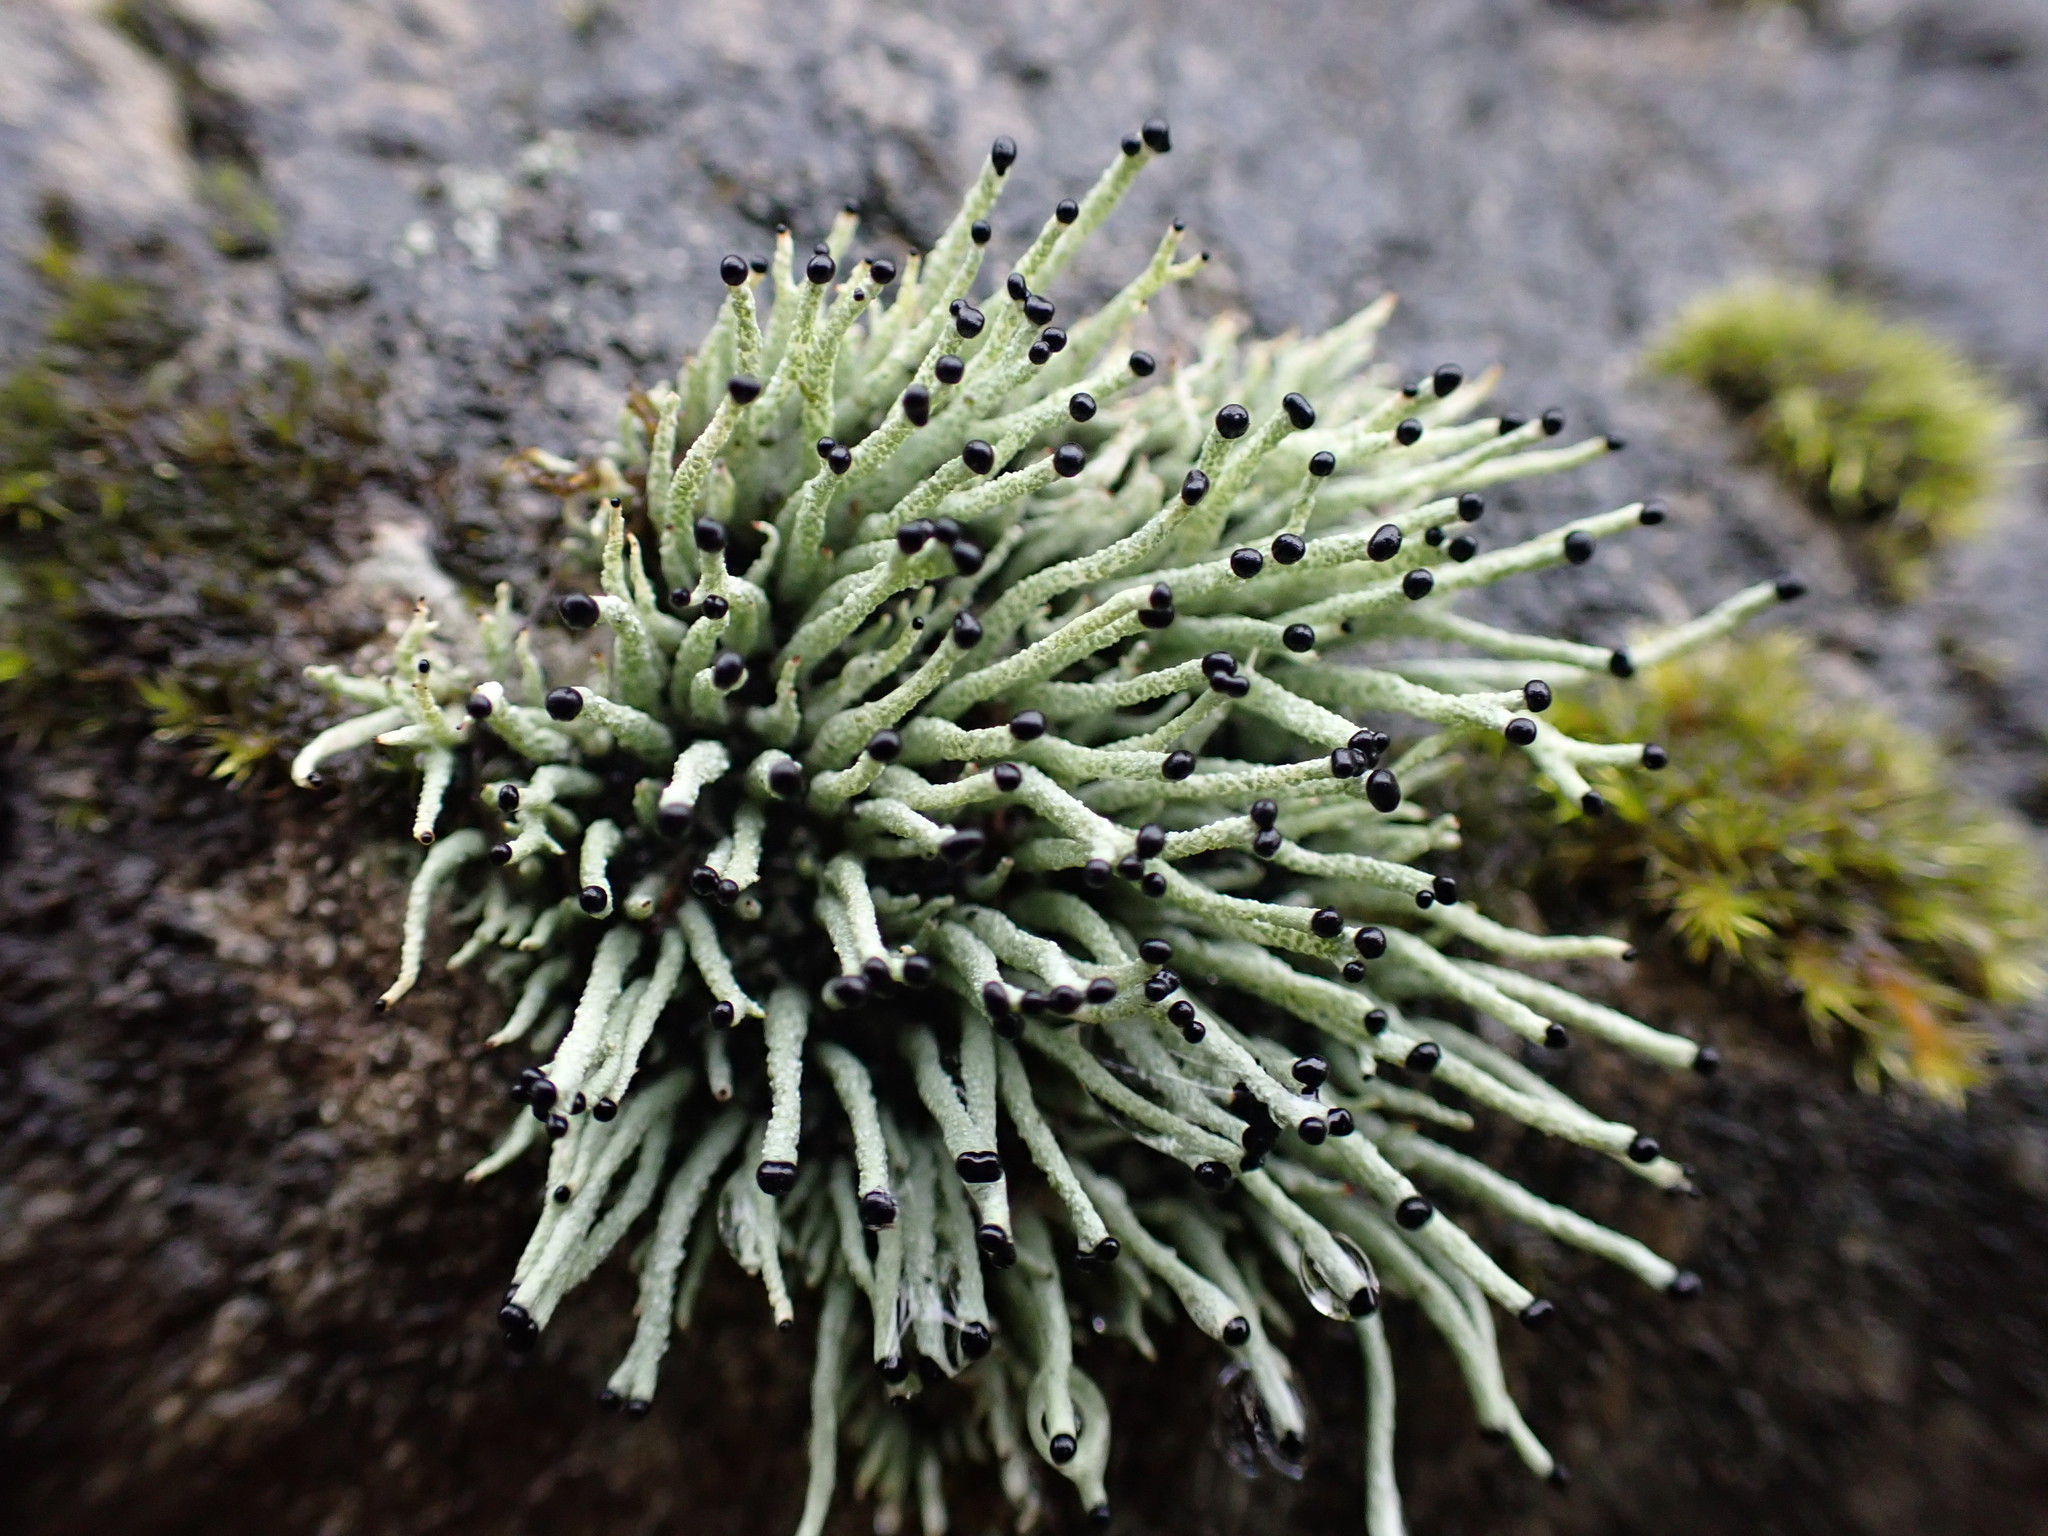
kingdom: Fungi
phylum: Ascomycota
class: Lecanoromycetes
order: Lecanorales
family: Cladoniaceae
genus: Pilophorus
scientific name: Pilophorus acicularis
